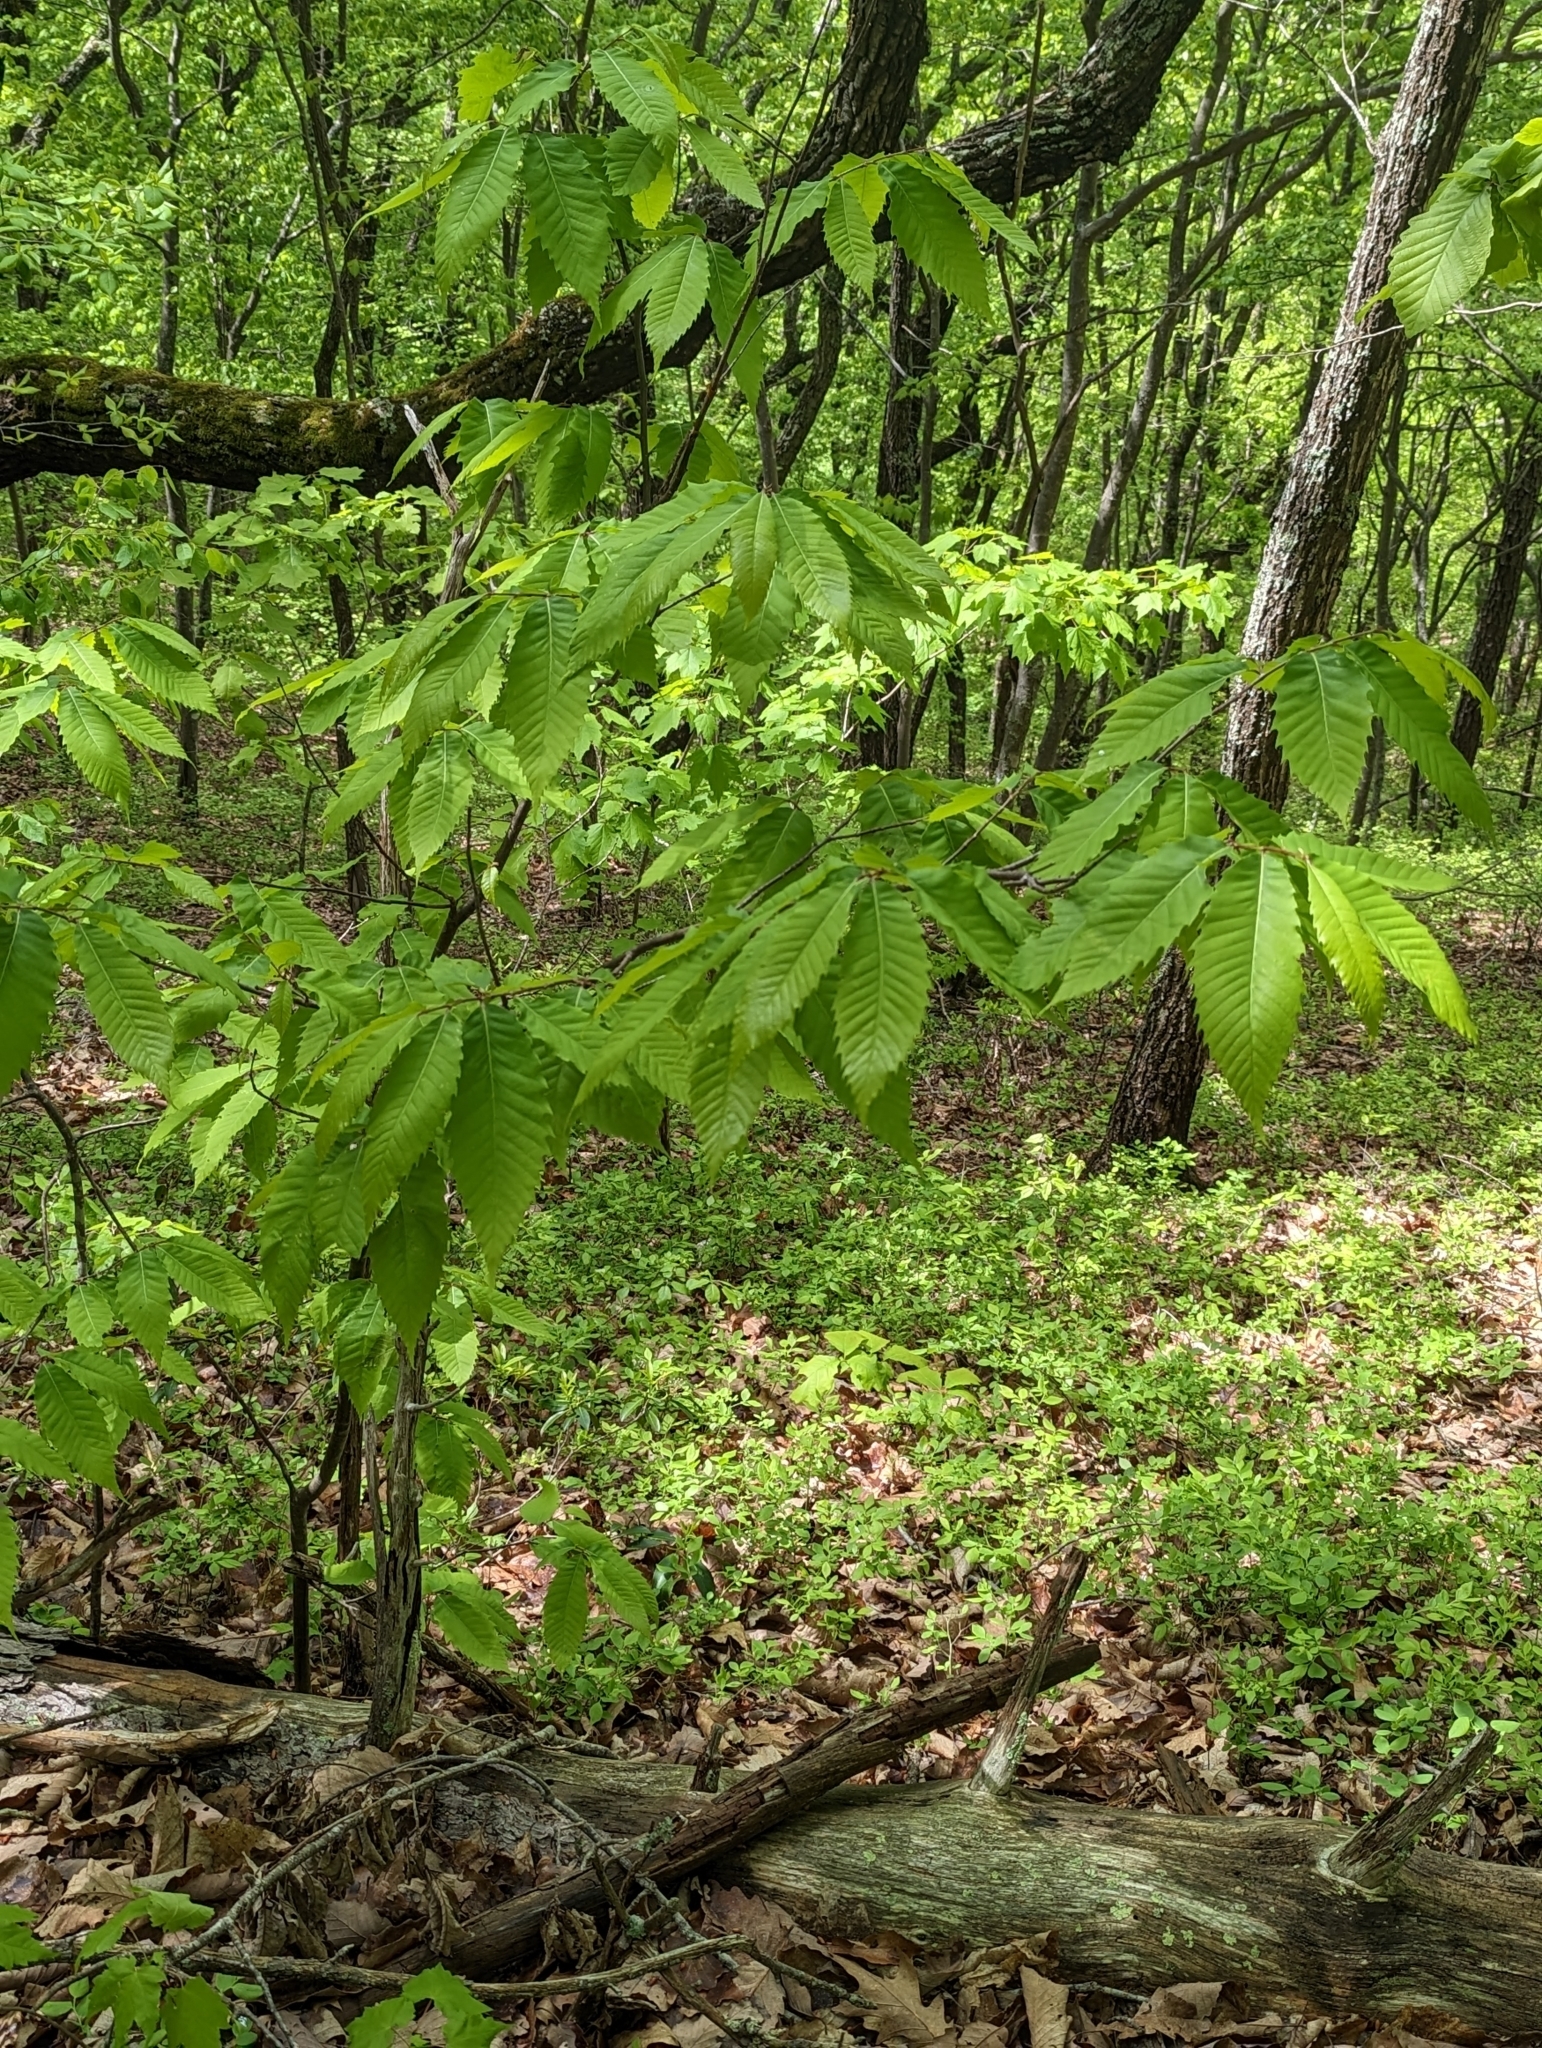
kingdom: Plantae
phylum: Tracheophyta
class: Magnoliopsida
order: Fagales
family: Fagaceae
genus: Castanea
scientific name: Castanea dentata
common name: American chestnut
